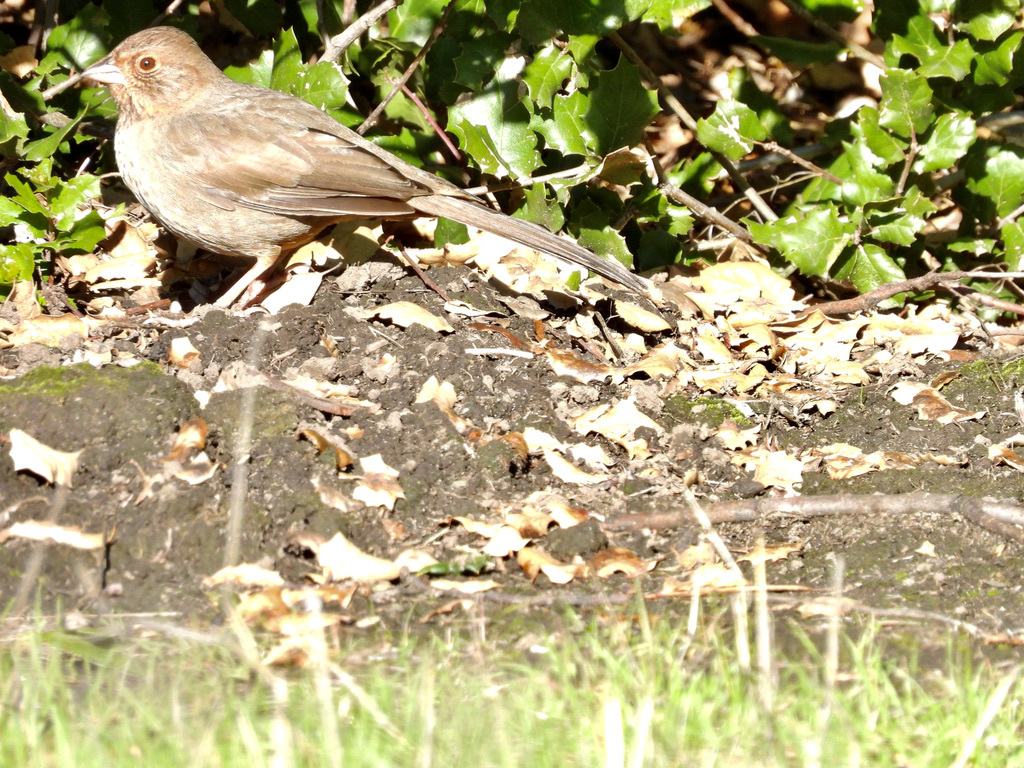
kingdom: Animalia
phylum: Chordata
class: Aves
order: Passeriformes
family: Passerellidae
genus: Melozone
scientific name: Melozone crissalis
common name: California towhee
